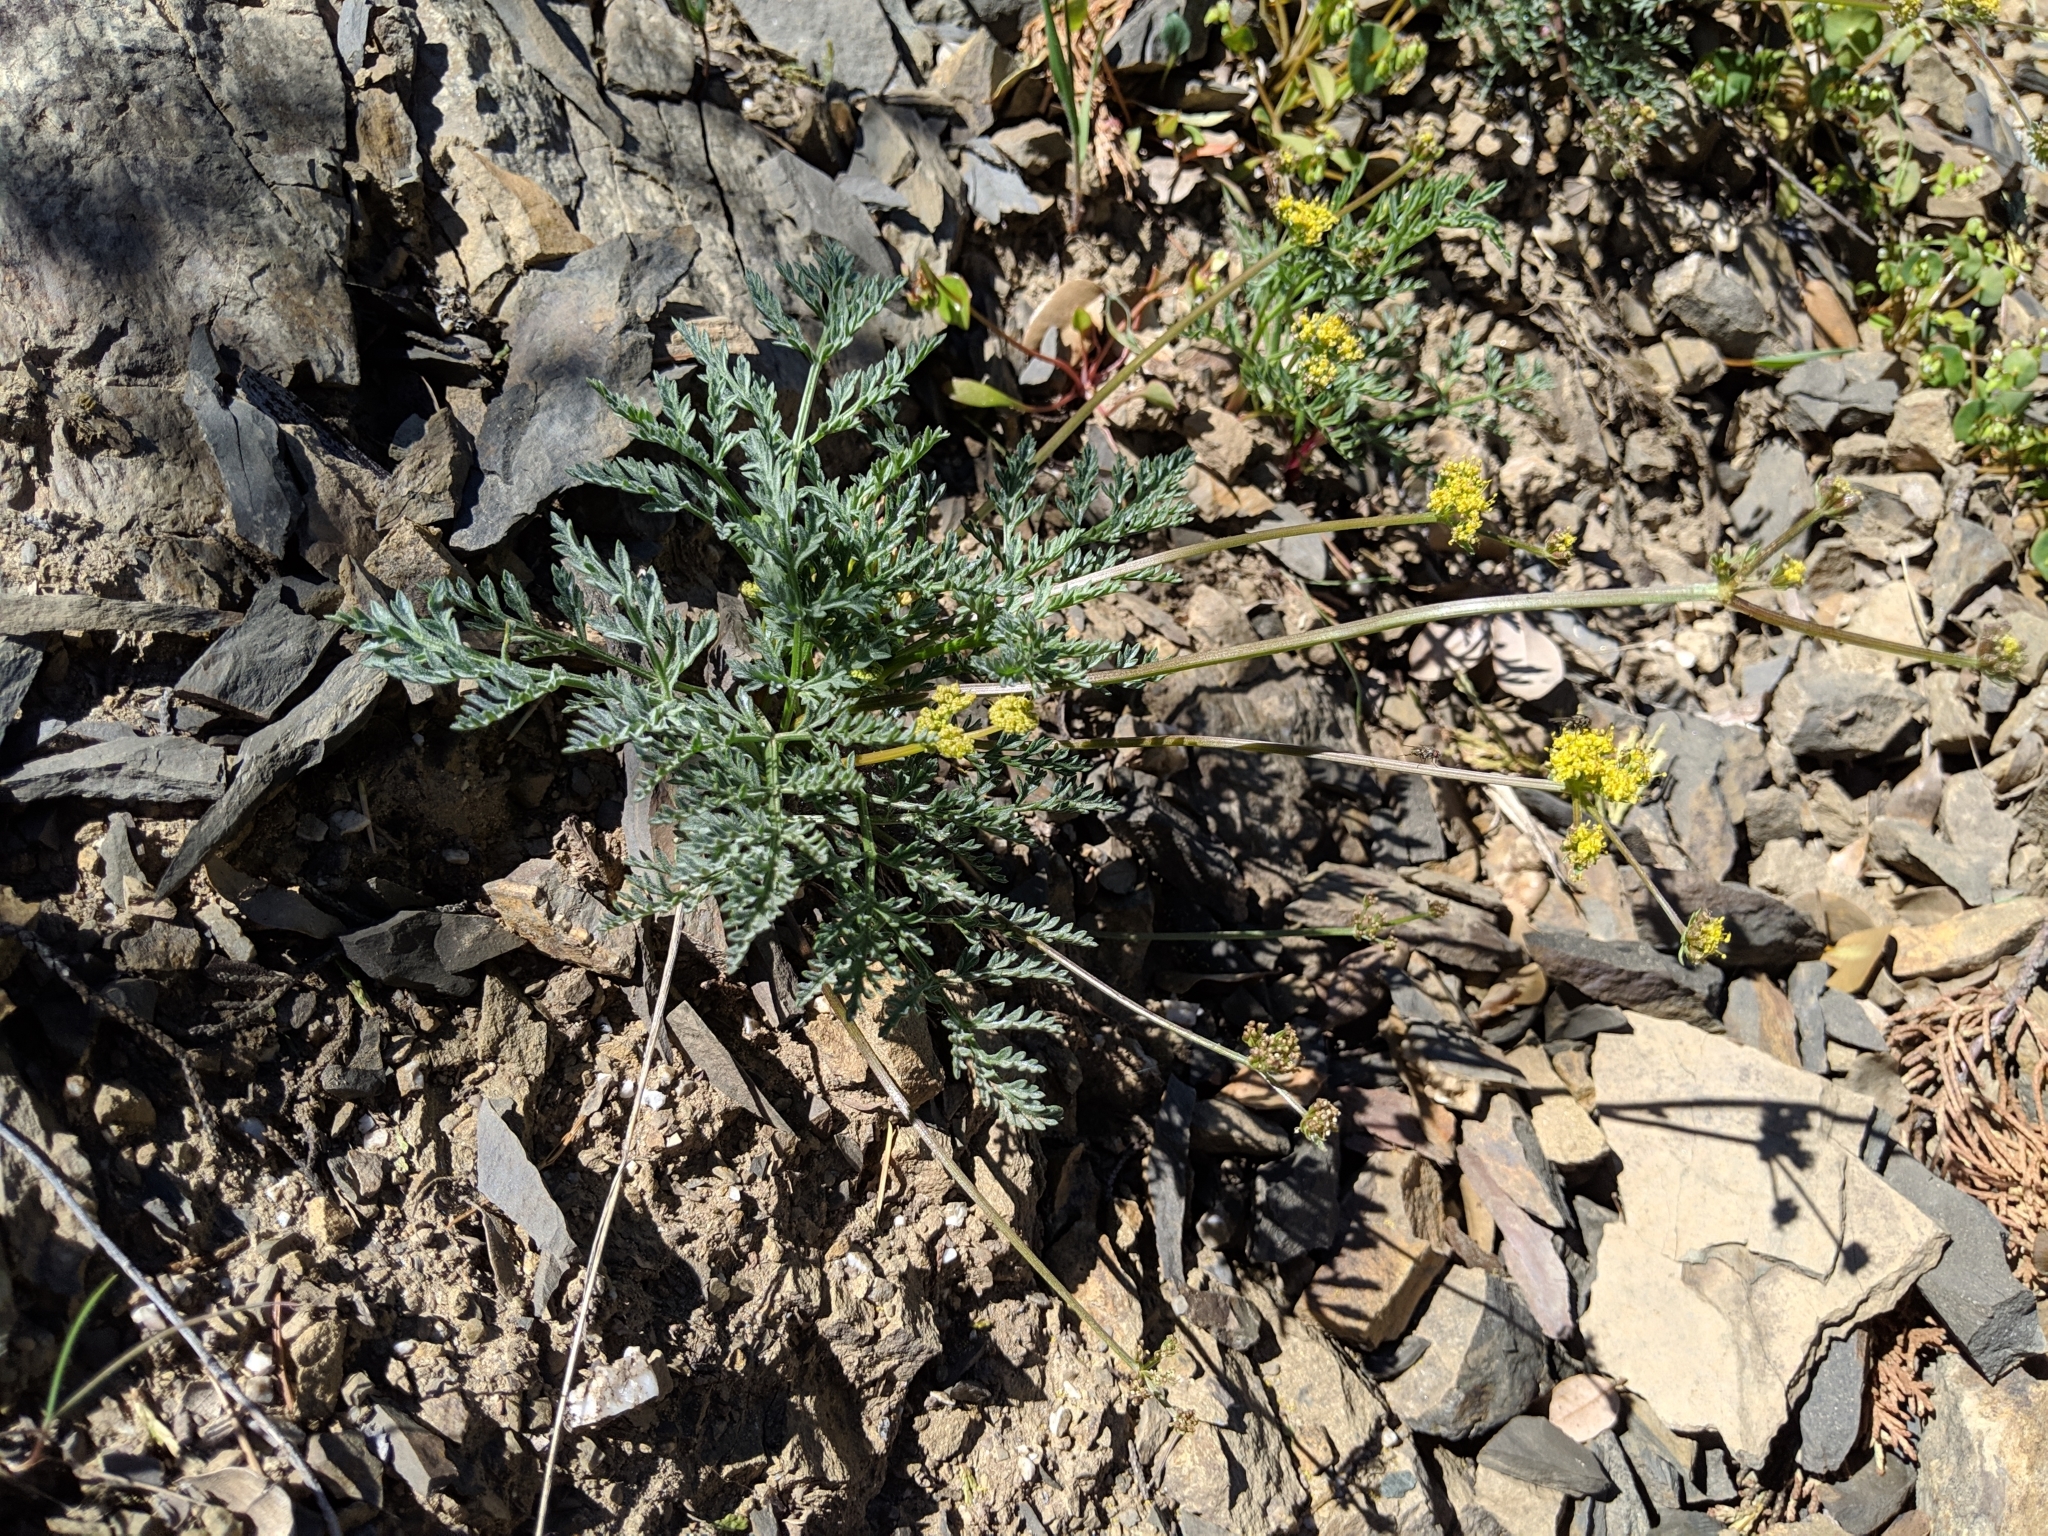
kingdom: Plantae
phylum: Tracheophyta
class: Magnoliopsida
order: Apiales
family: Apiaceae
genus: Lomatium
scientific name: Lomatium observatorium
